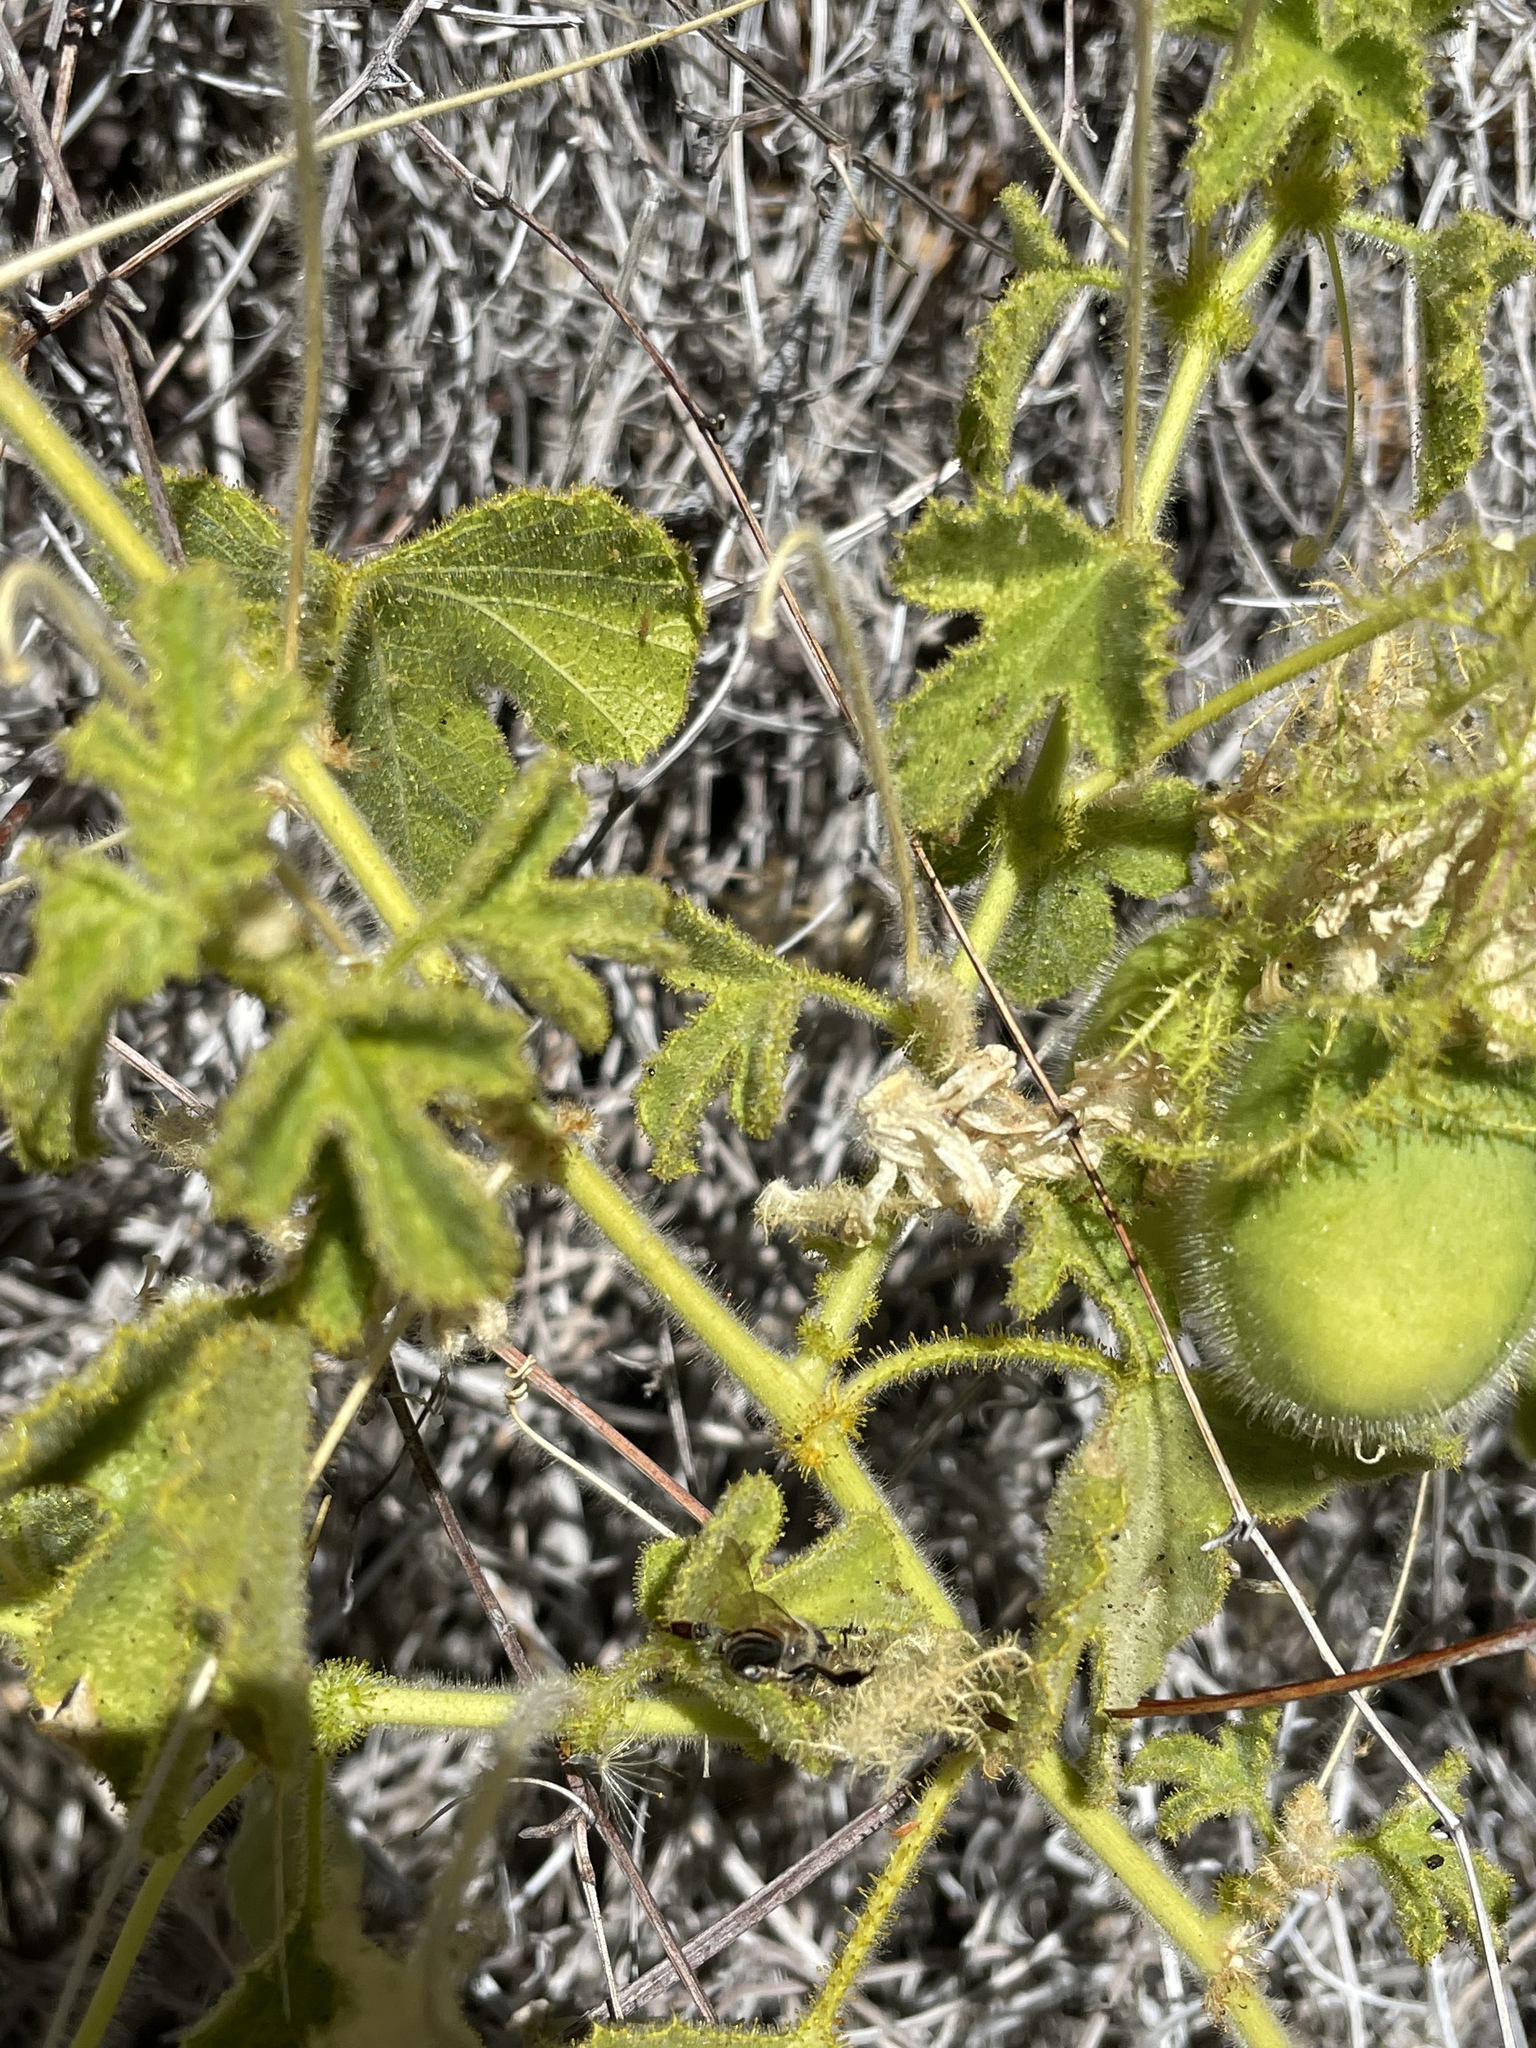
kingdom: Plantae
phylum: Tracheophyta
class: Magnoliopsida
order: Malpighiales
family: Passifloraceae
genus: Passiflora
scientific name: Passiflora arida
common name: Desert passionflower
